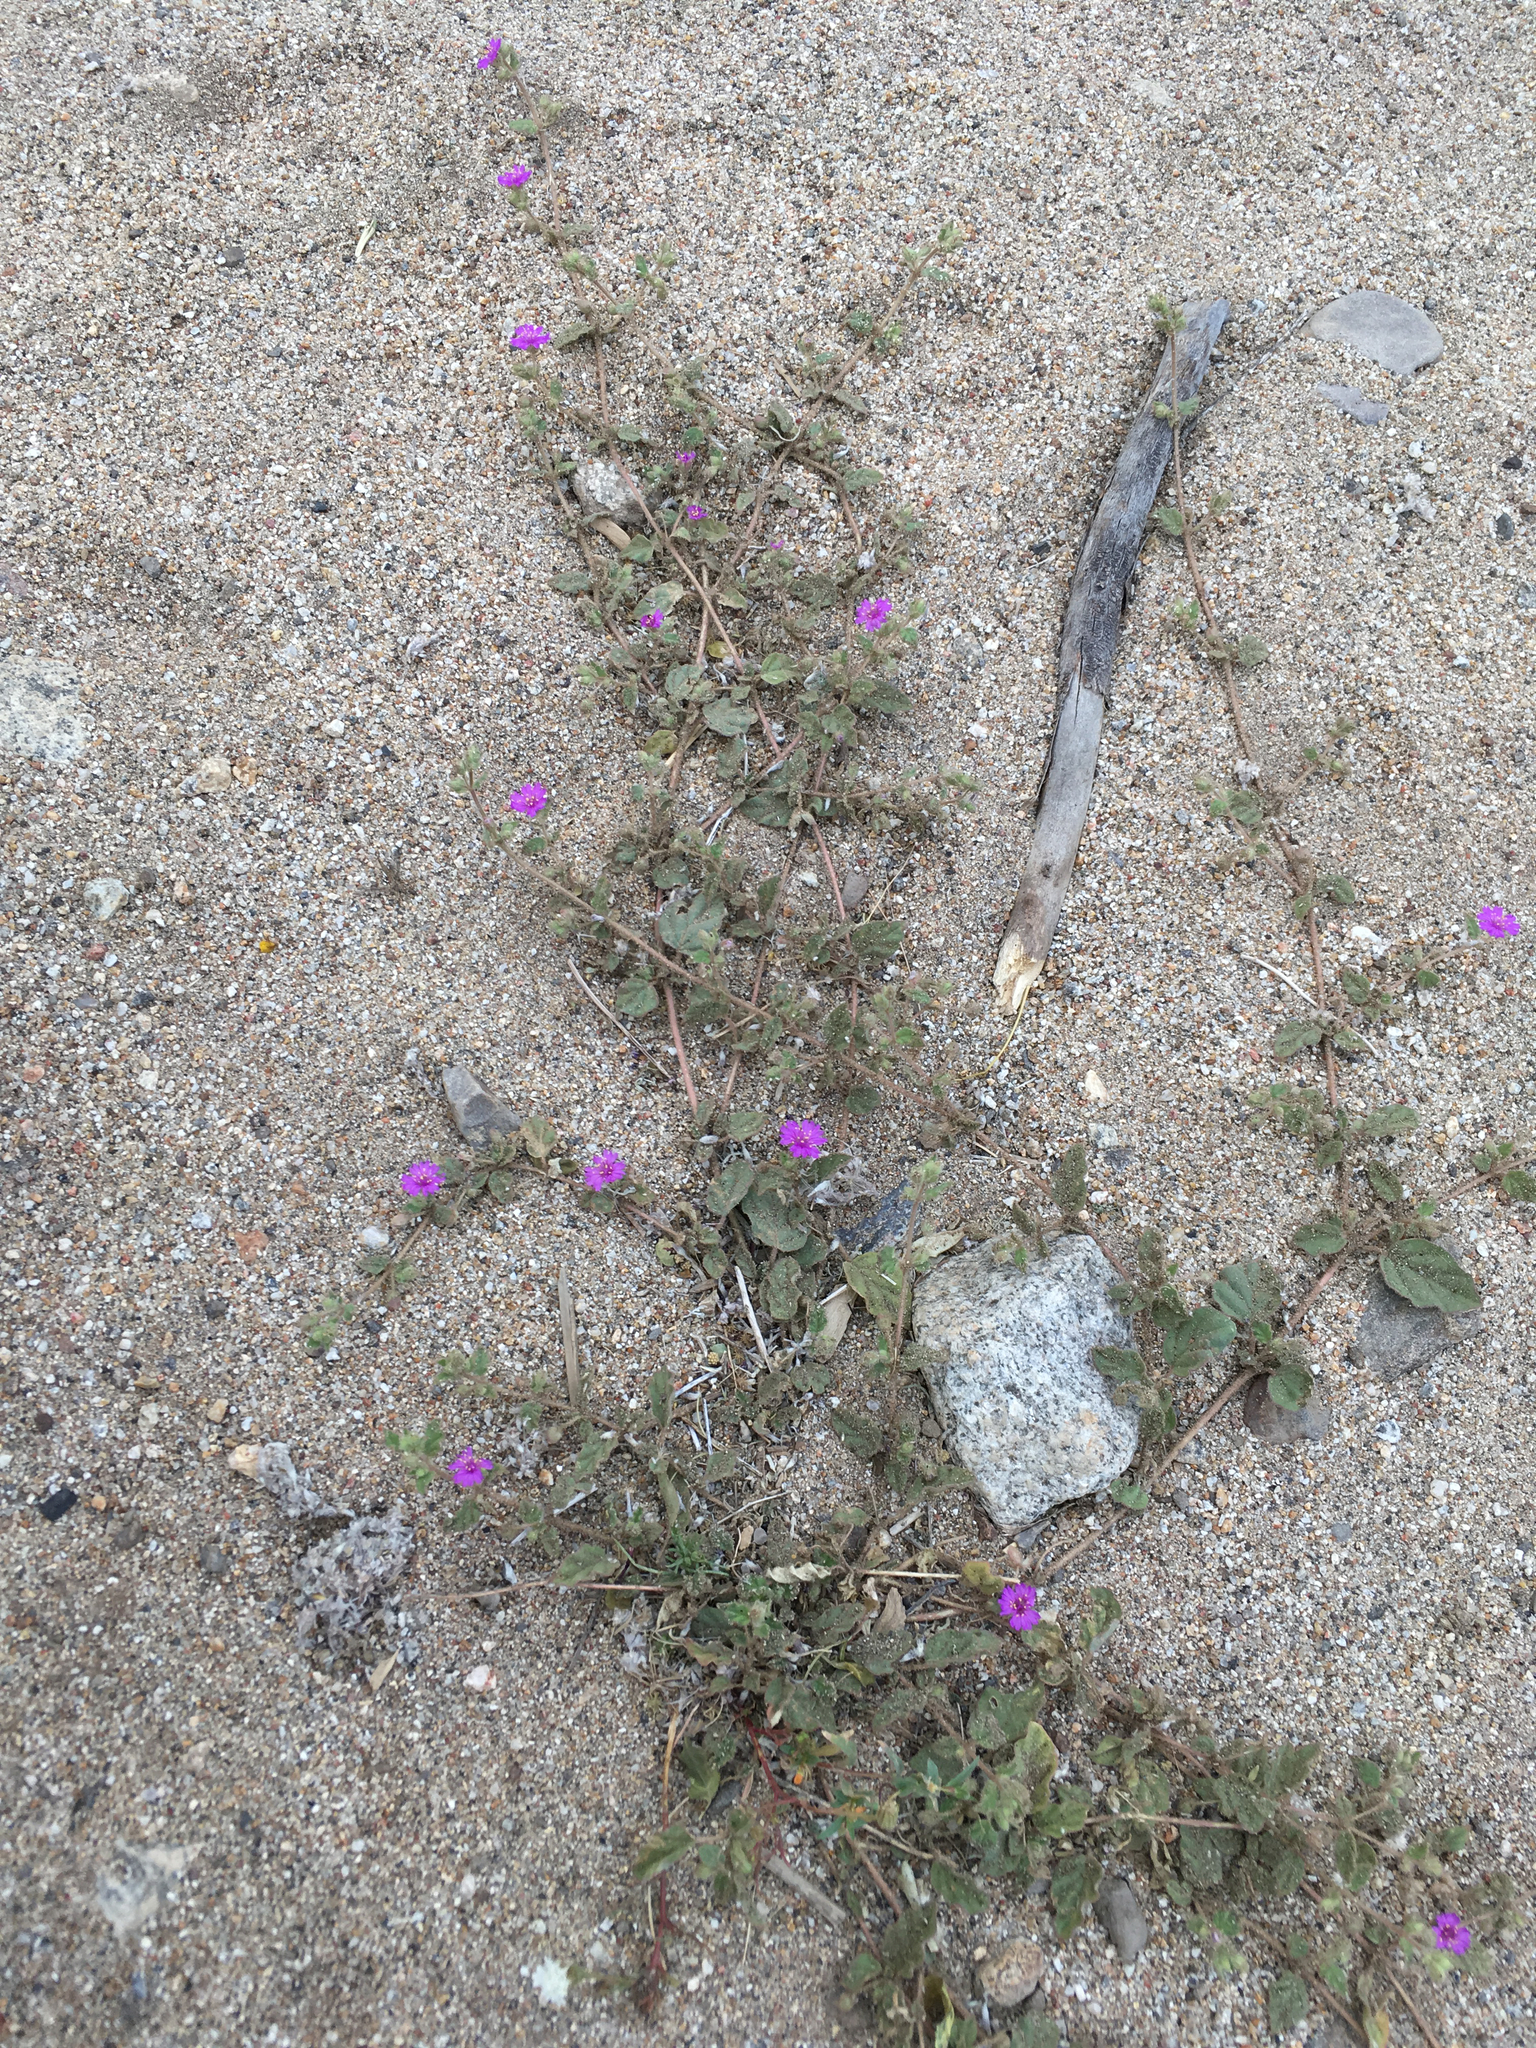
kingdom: Plantae
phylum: Tracheophyta
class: Magnoliopsida
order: Caryophyllales
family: Nyctaginaceae
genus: Allionia
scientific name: Allionia incarnata
